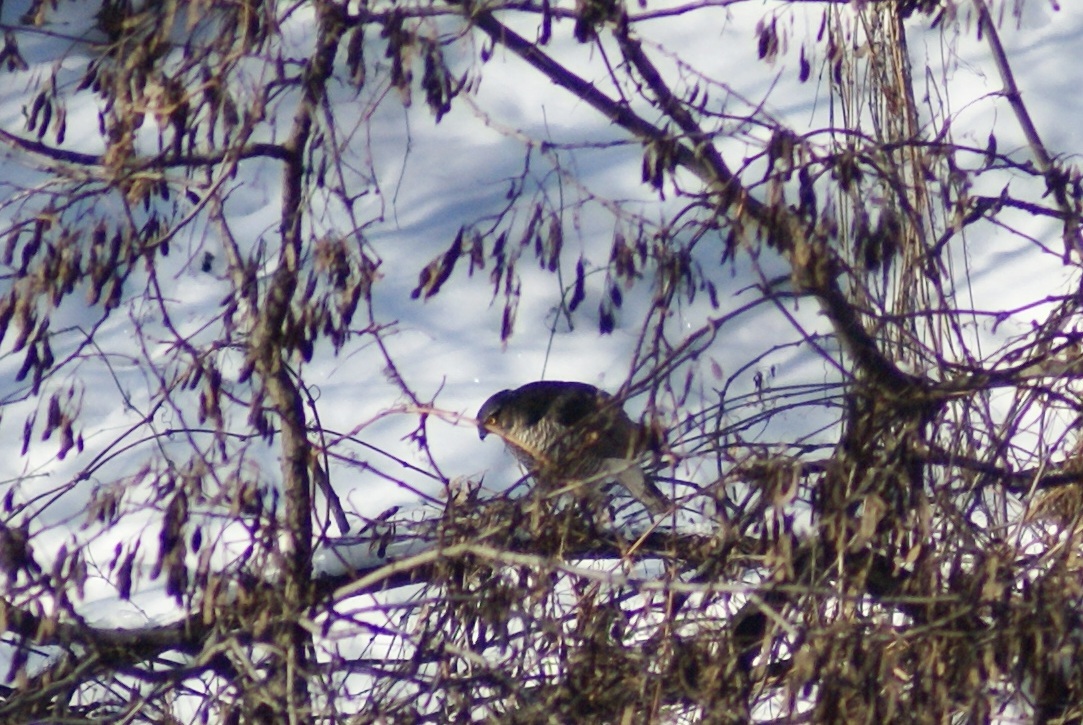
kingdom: Animalia
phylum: Chordata
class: Aves
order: Accipitriformes
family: Accipitridae
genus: Accipiter
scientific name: Accipiter nisus
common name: Eurasian sparrowhawk
